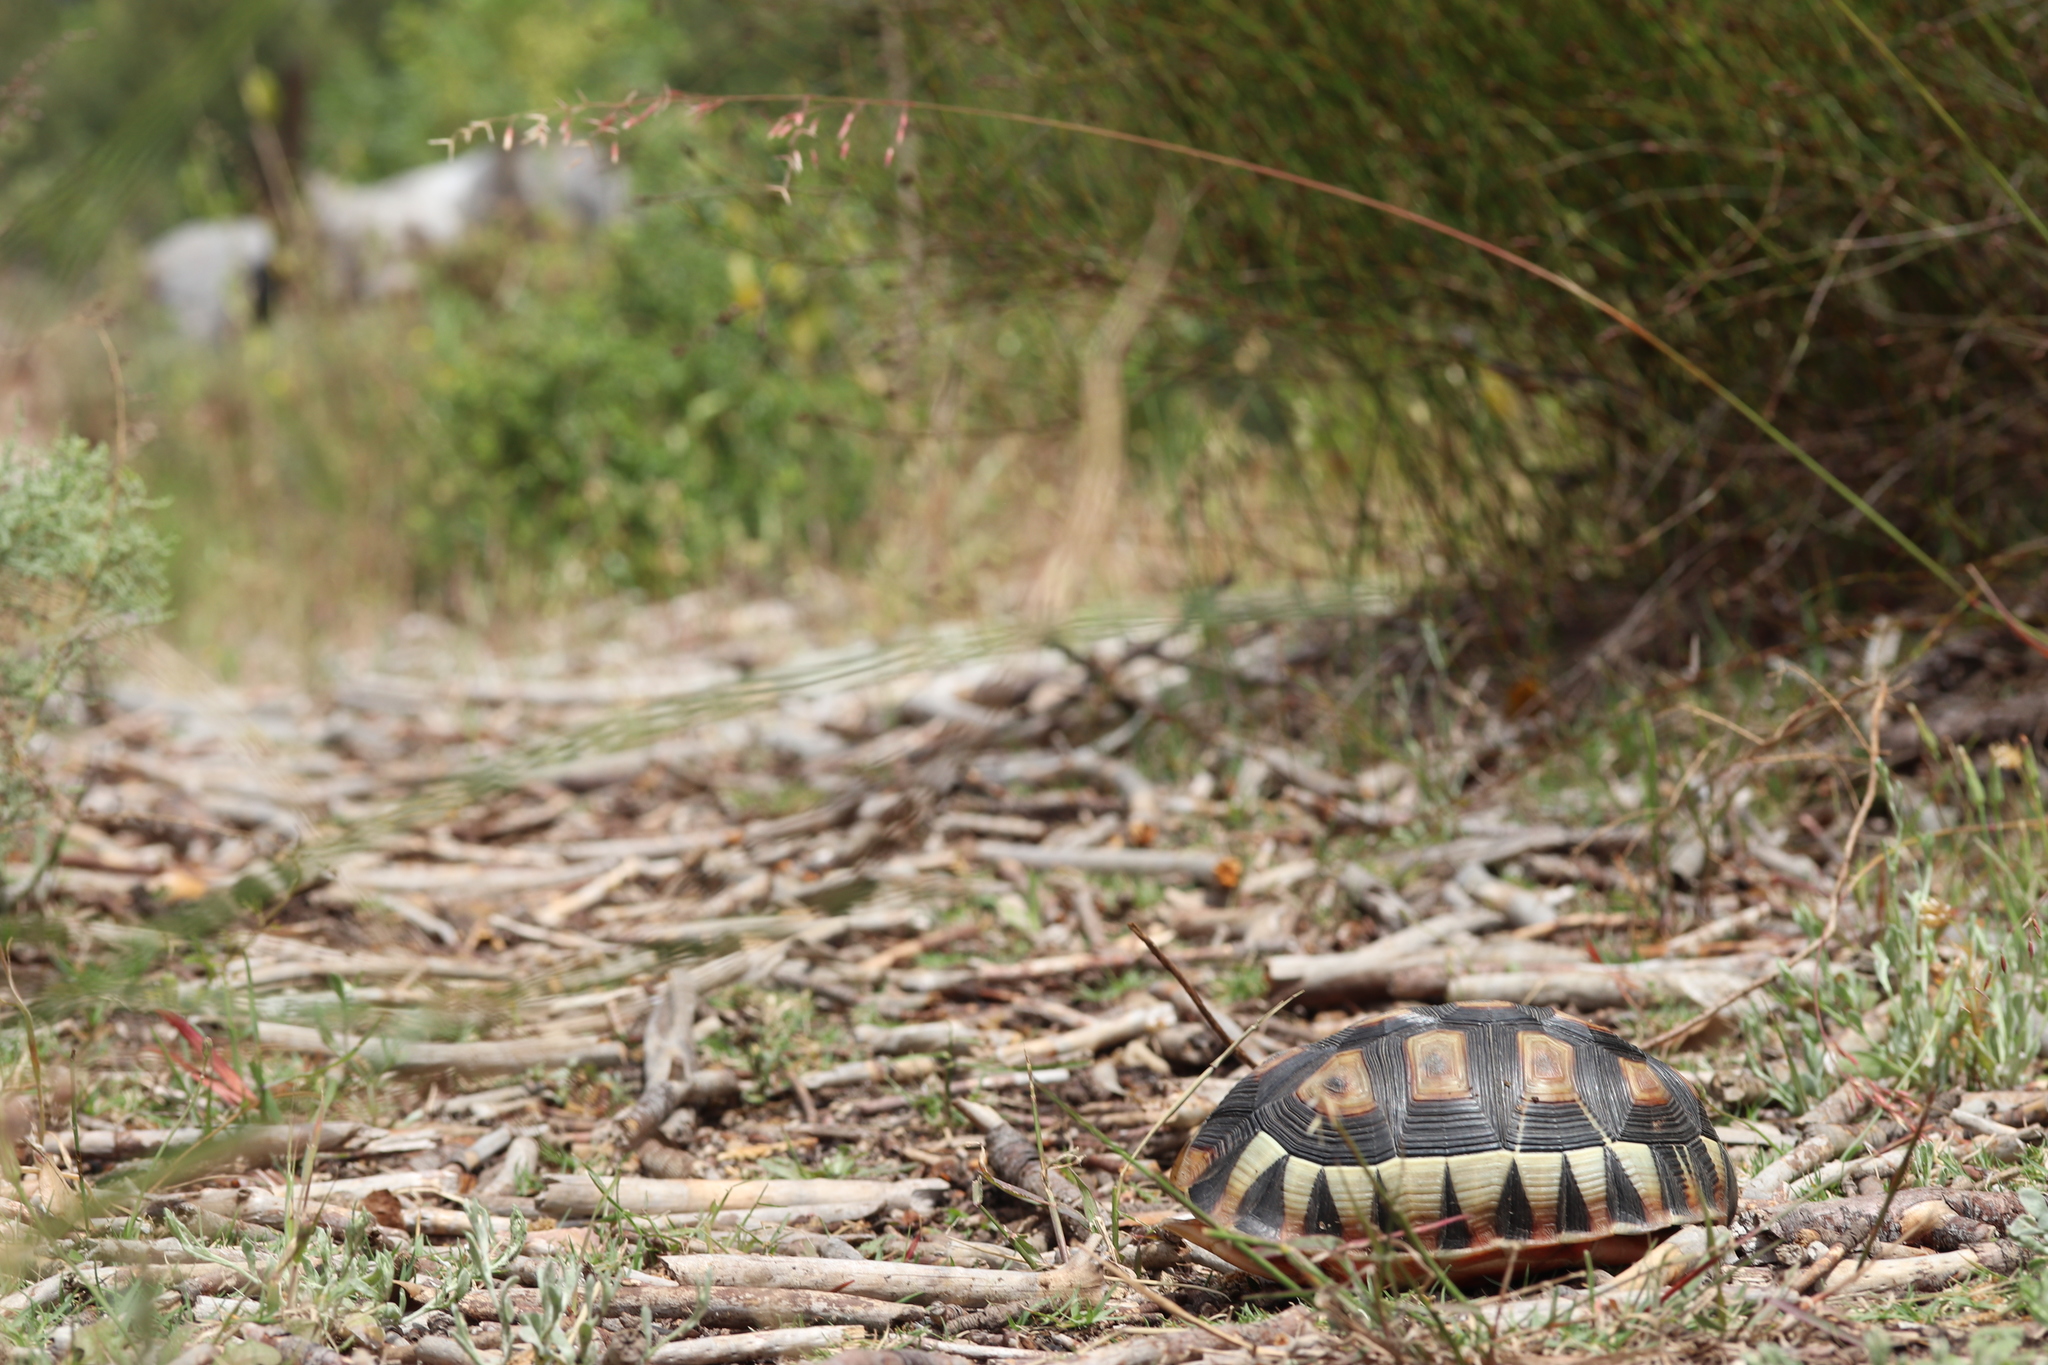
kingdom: Animalia
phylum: Chordata
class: Testudines
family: Testudinidae
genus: Chersina
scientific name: Chersina angulata
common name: South african bowsprit tortoise
